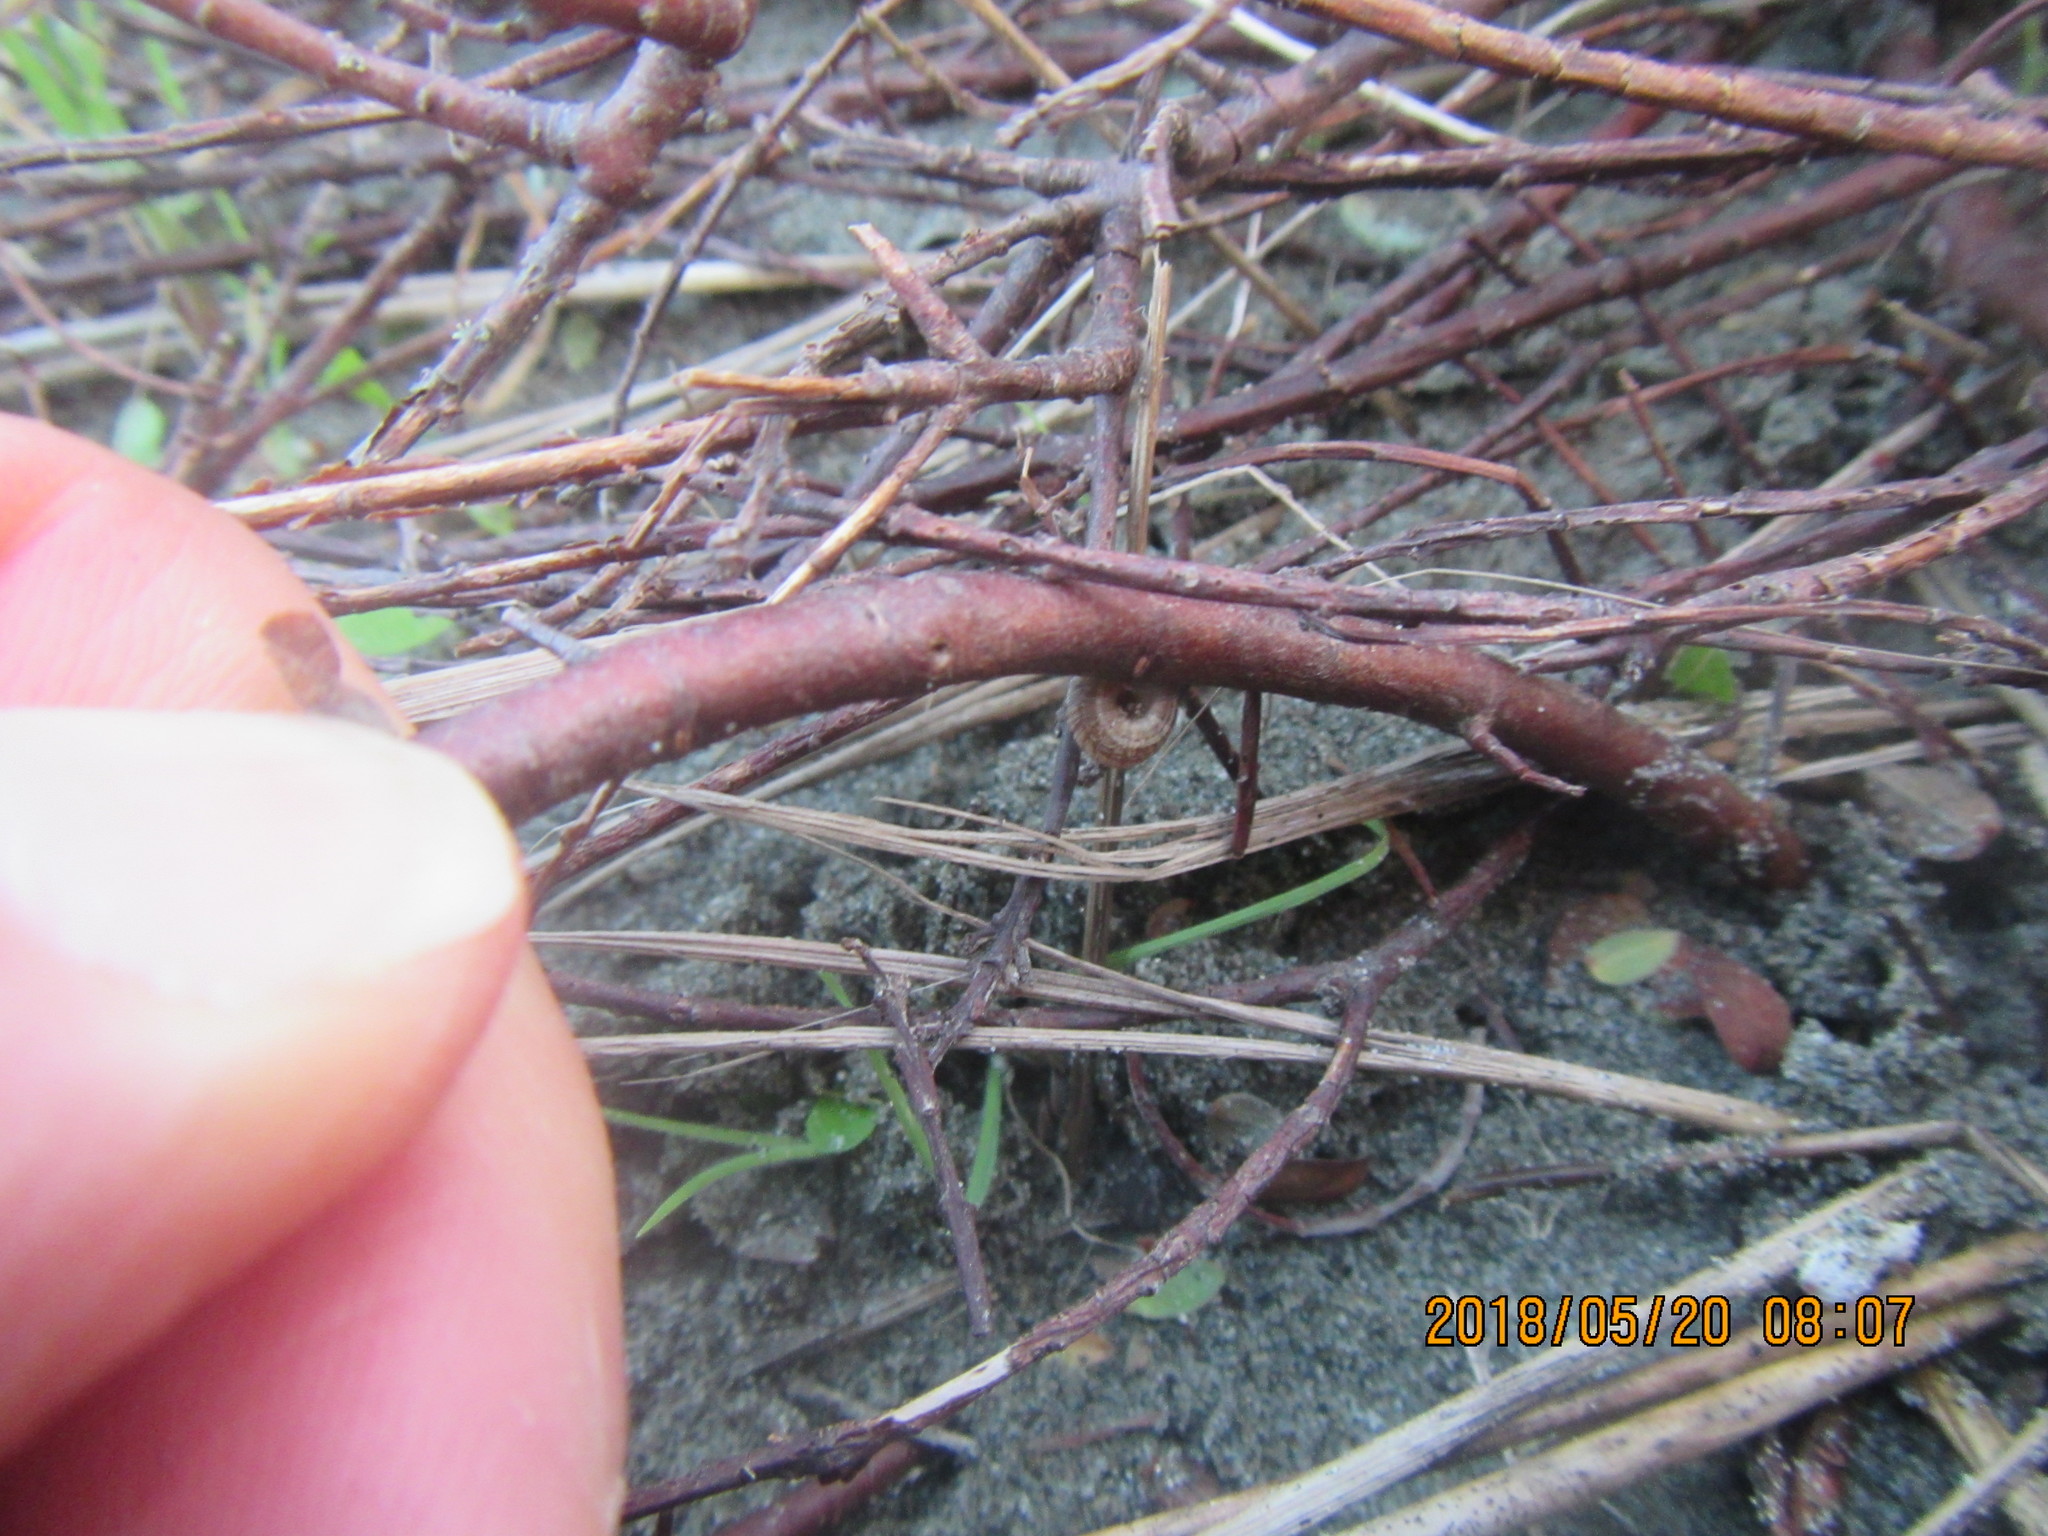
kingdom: Animalia
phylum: Mollusca
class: Gastropoda
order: Stylommatophora
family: Geomitridae
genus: Xeroplexa
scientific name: Xeroplexa intersecta
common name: Wrinkled snail
